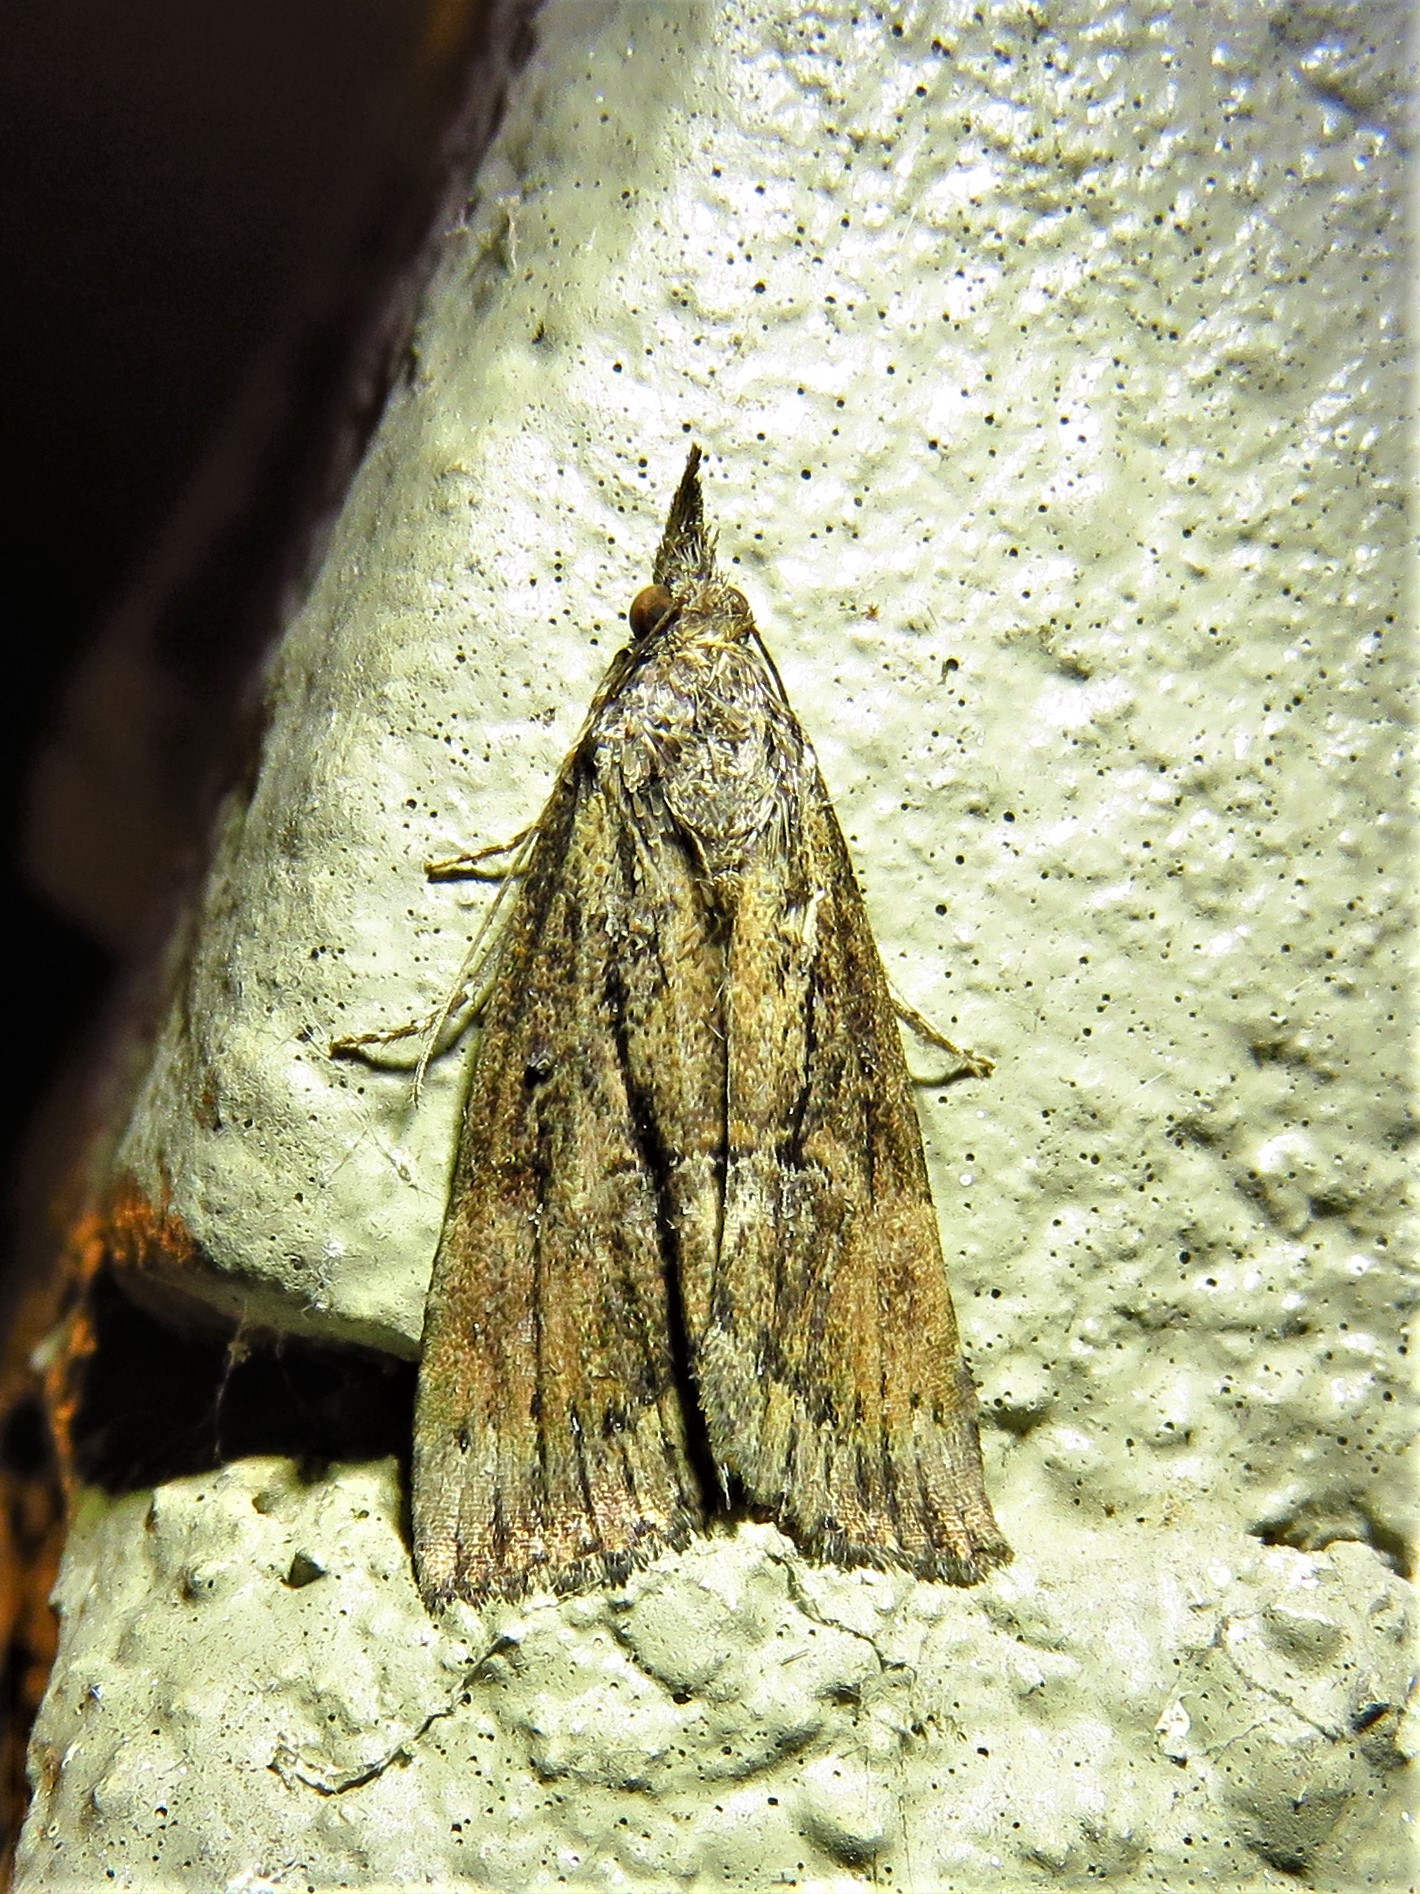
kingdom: Animalia
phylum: Arthropoda
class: Insecta
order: Lepidoptera
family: Erebidae
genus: Hypena
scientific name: Hypena scabra
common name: Green cloverworm
